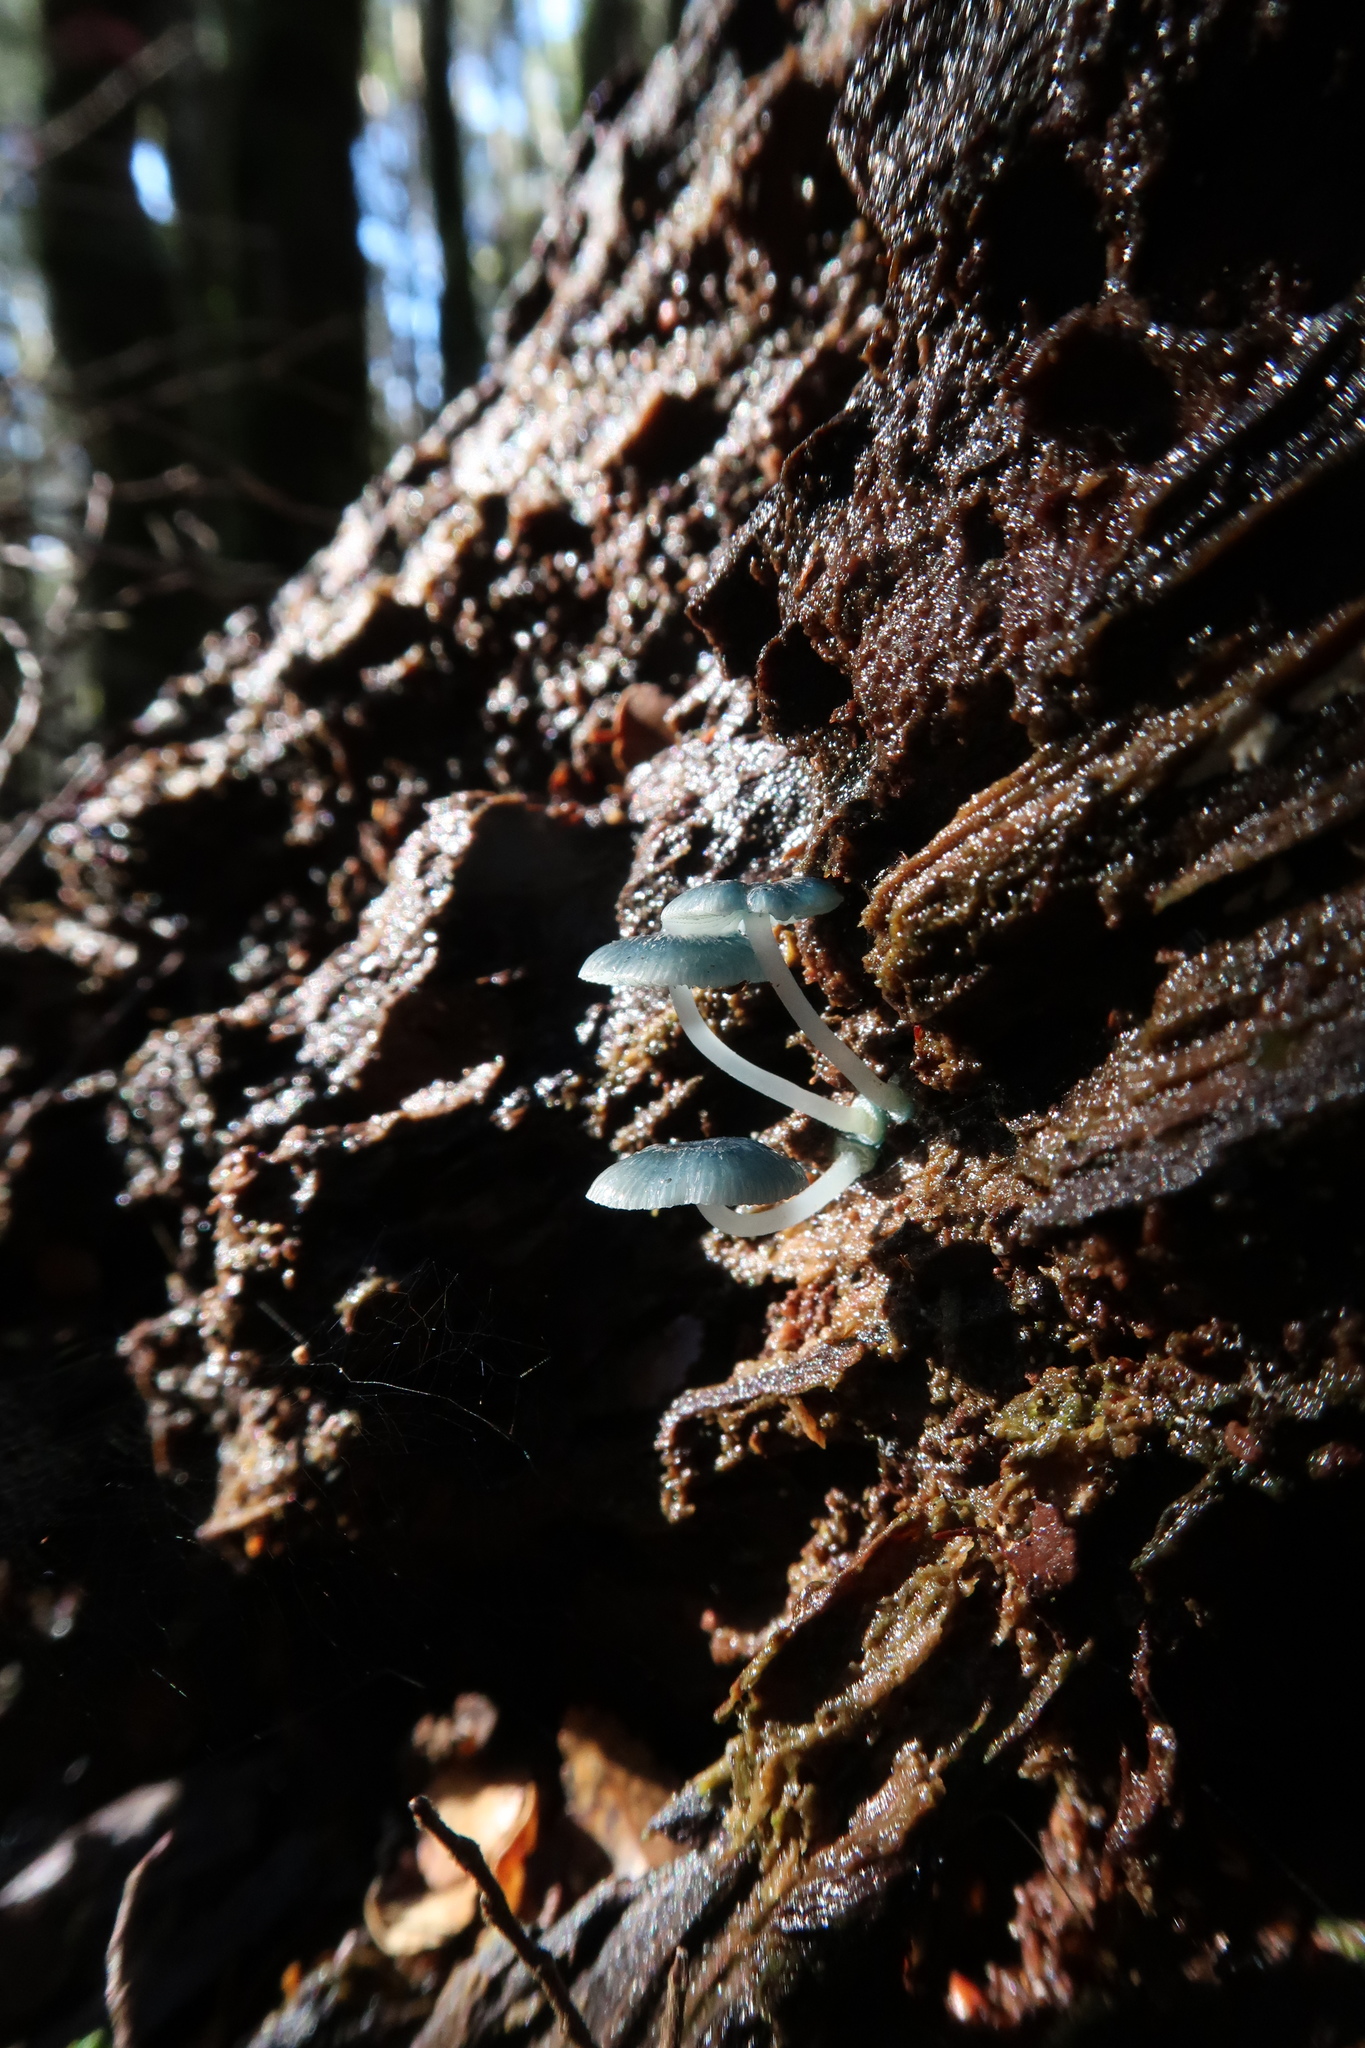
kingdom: Fungi
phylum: Basidiomycota
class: Agaricomycetes
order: Agaricales
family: Mycenaceae
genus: Mycena
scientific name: Mycena interrupta
